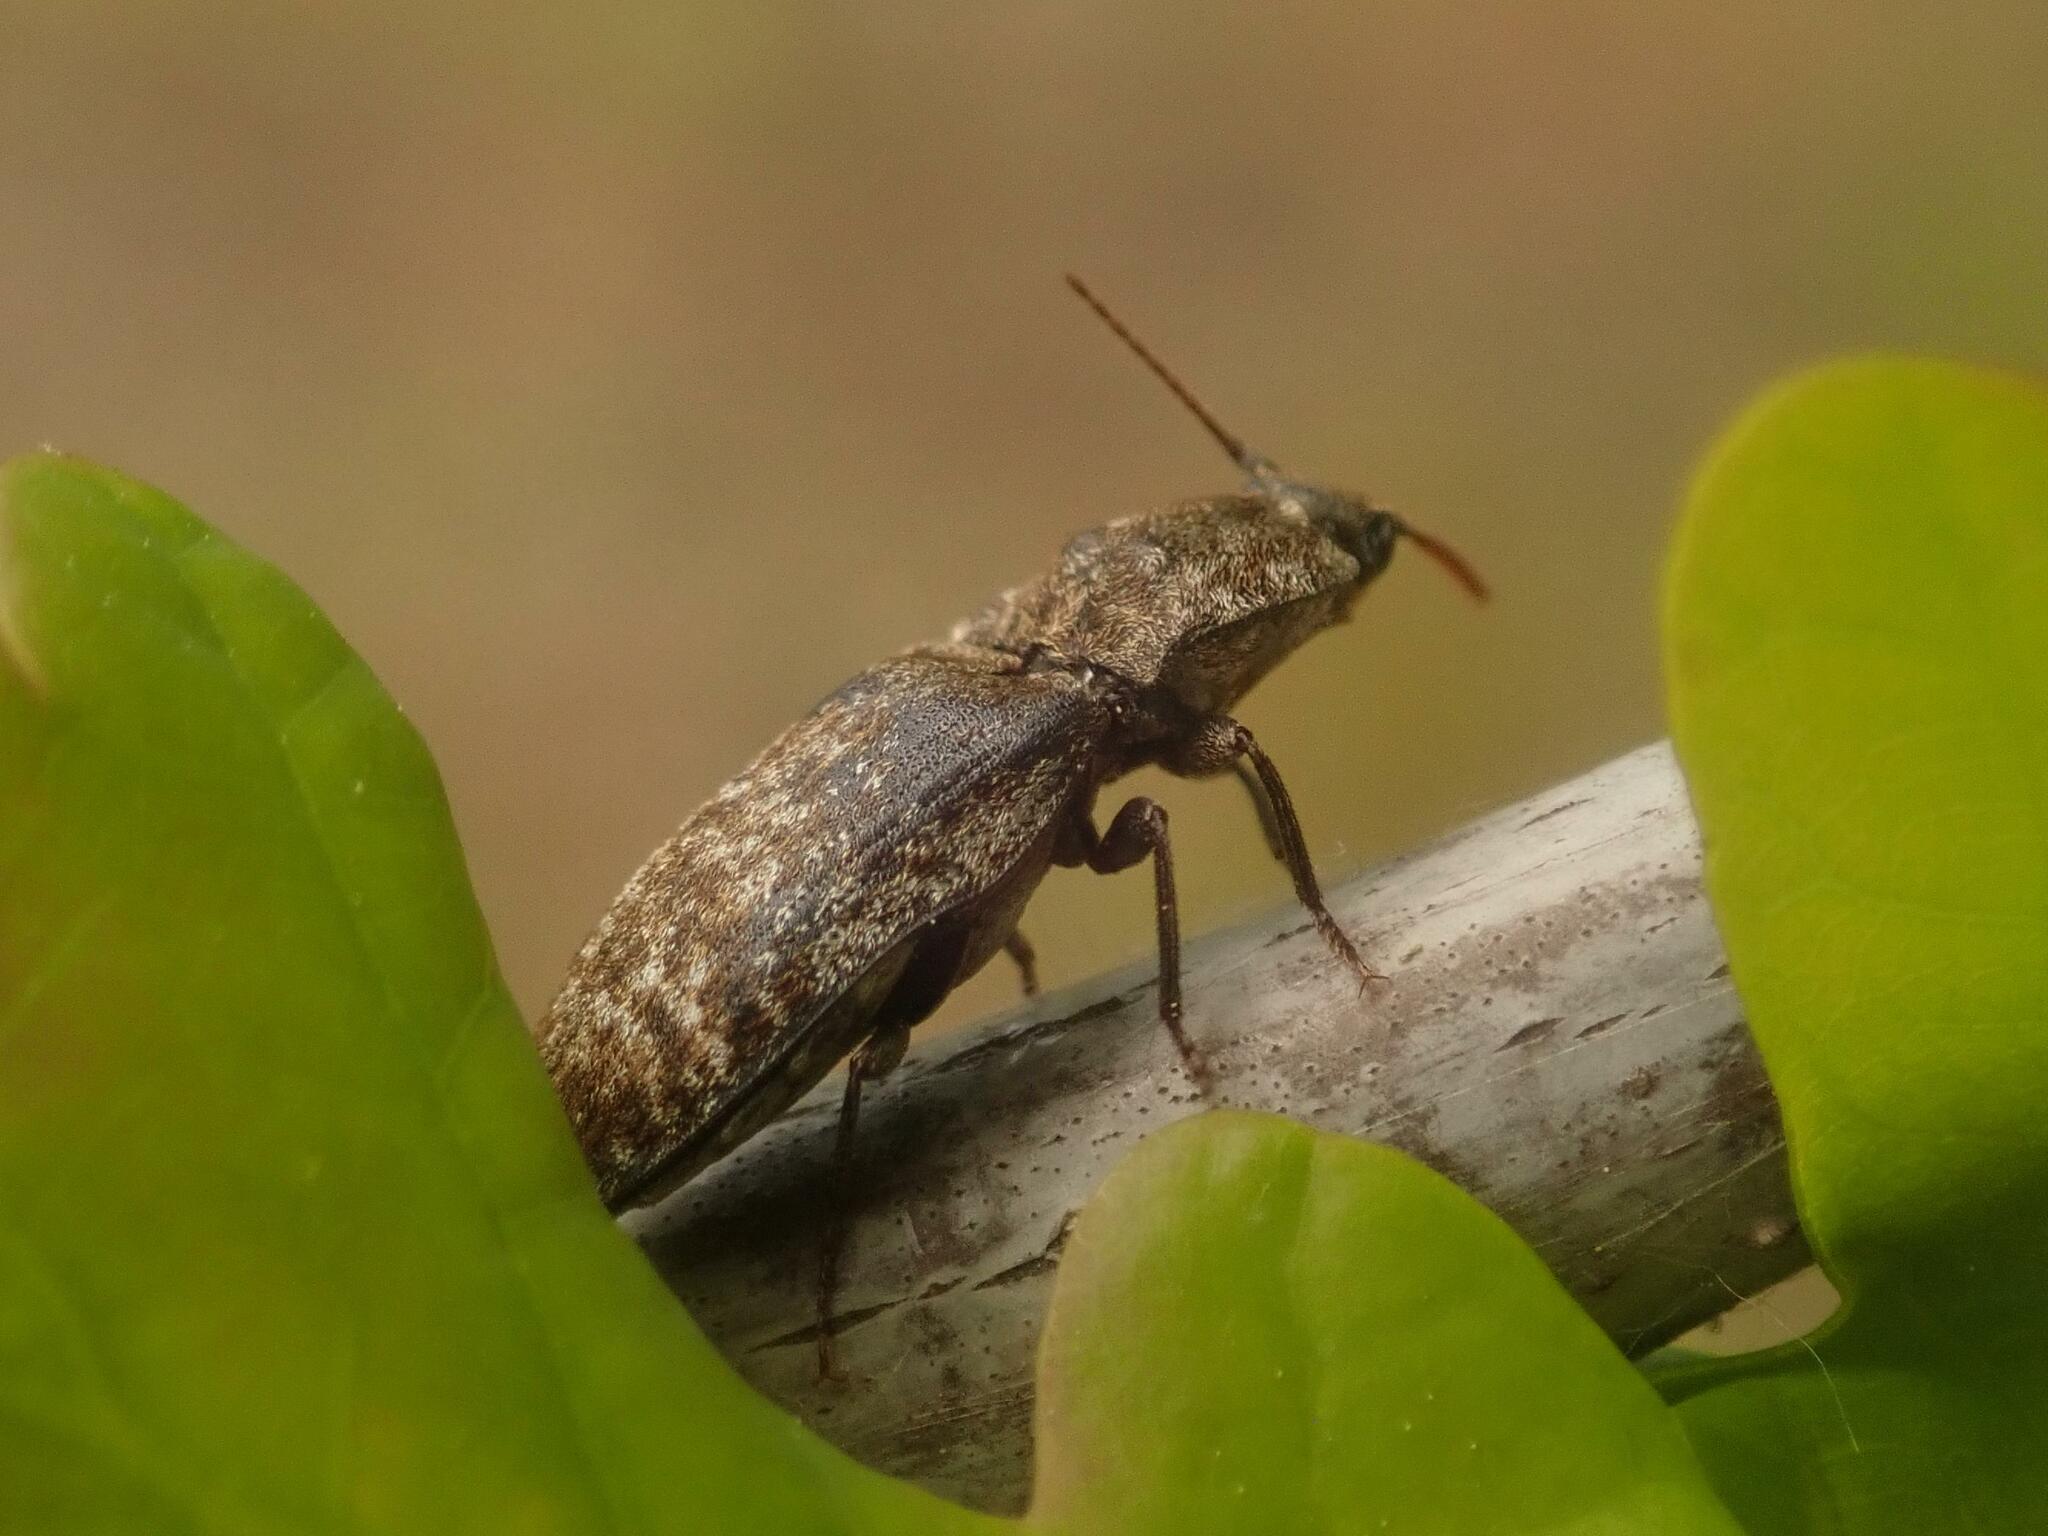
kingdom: Animalia
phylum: Arthropoda
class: Insecta
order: Coleoptera
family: Elateridae
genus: Agrypnus
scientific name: Agrypnus murinus
